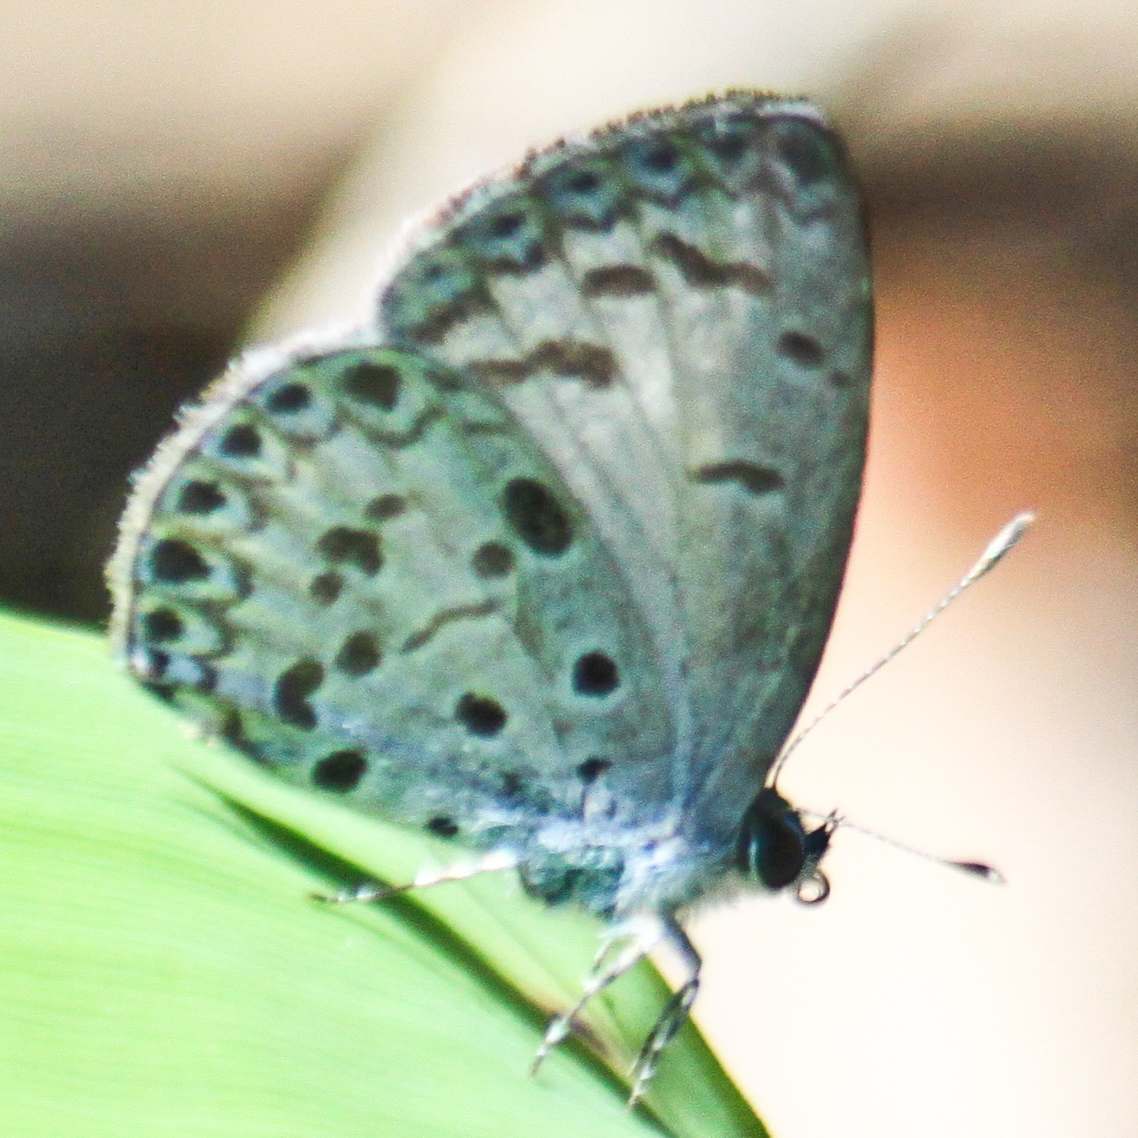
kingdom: Animalia
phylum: Arthropoda
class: Insecta
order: Lepidoptera
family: Lycaenidae
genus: Acytolepis
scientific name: Acytolepis puspa
